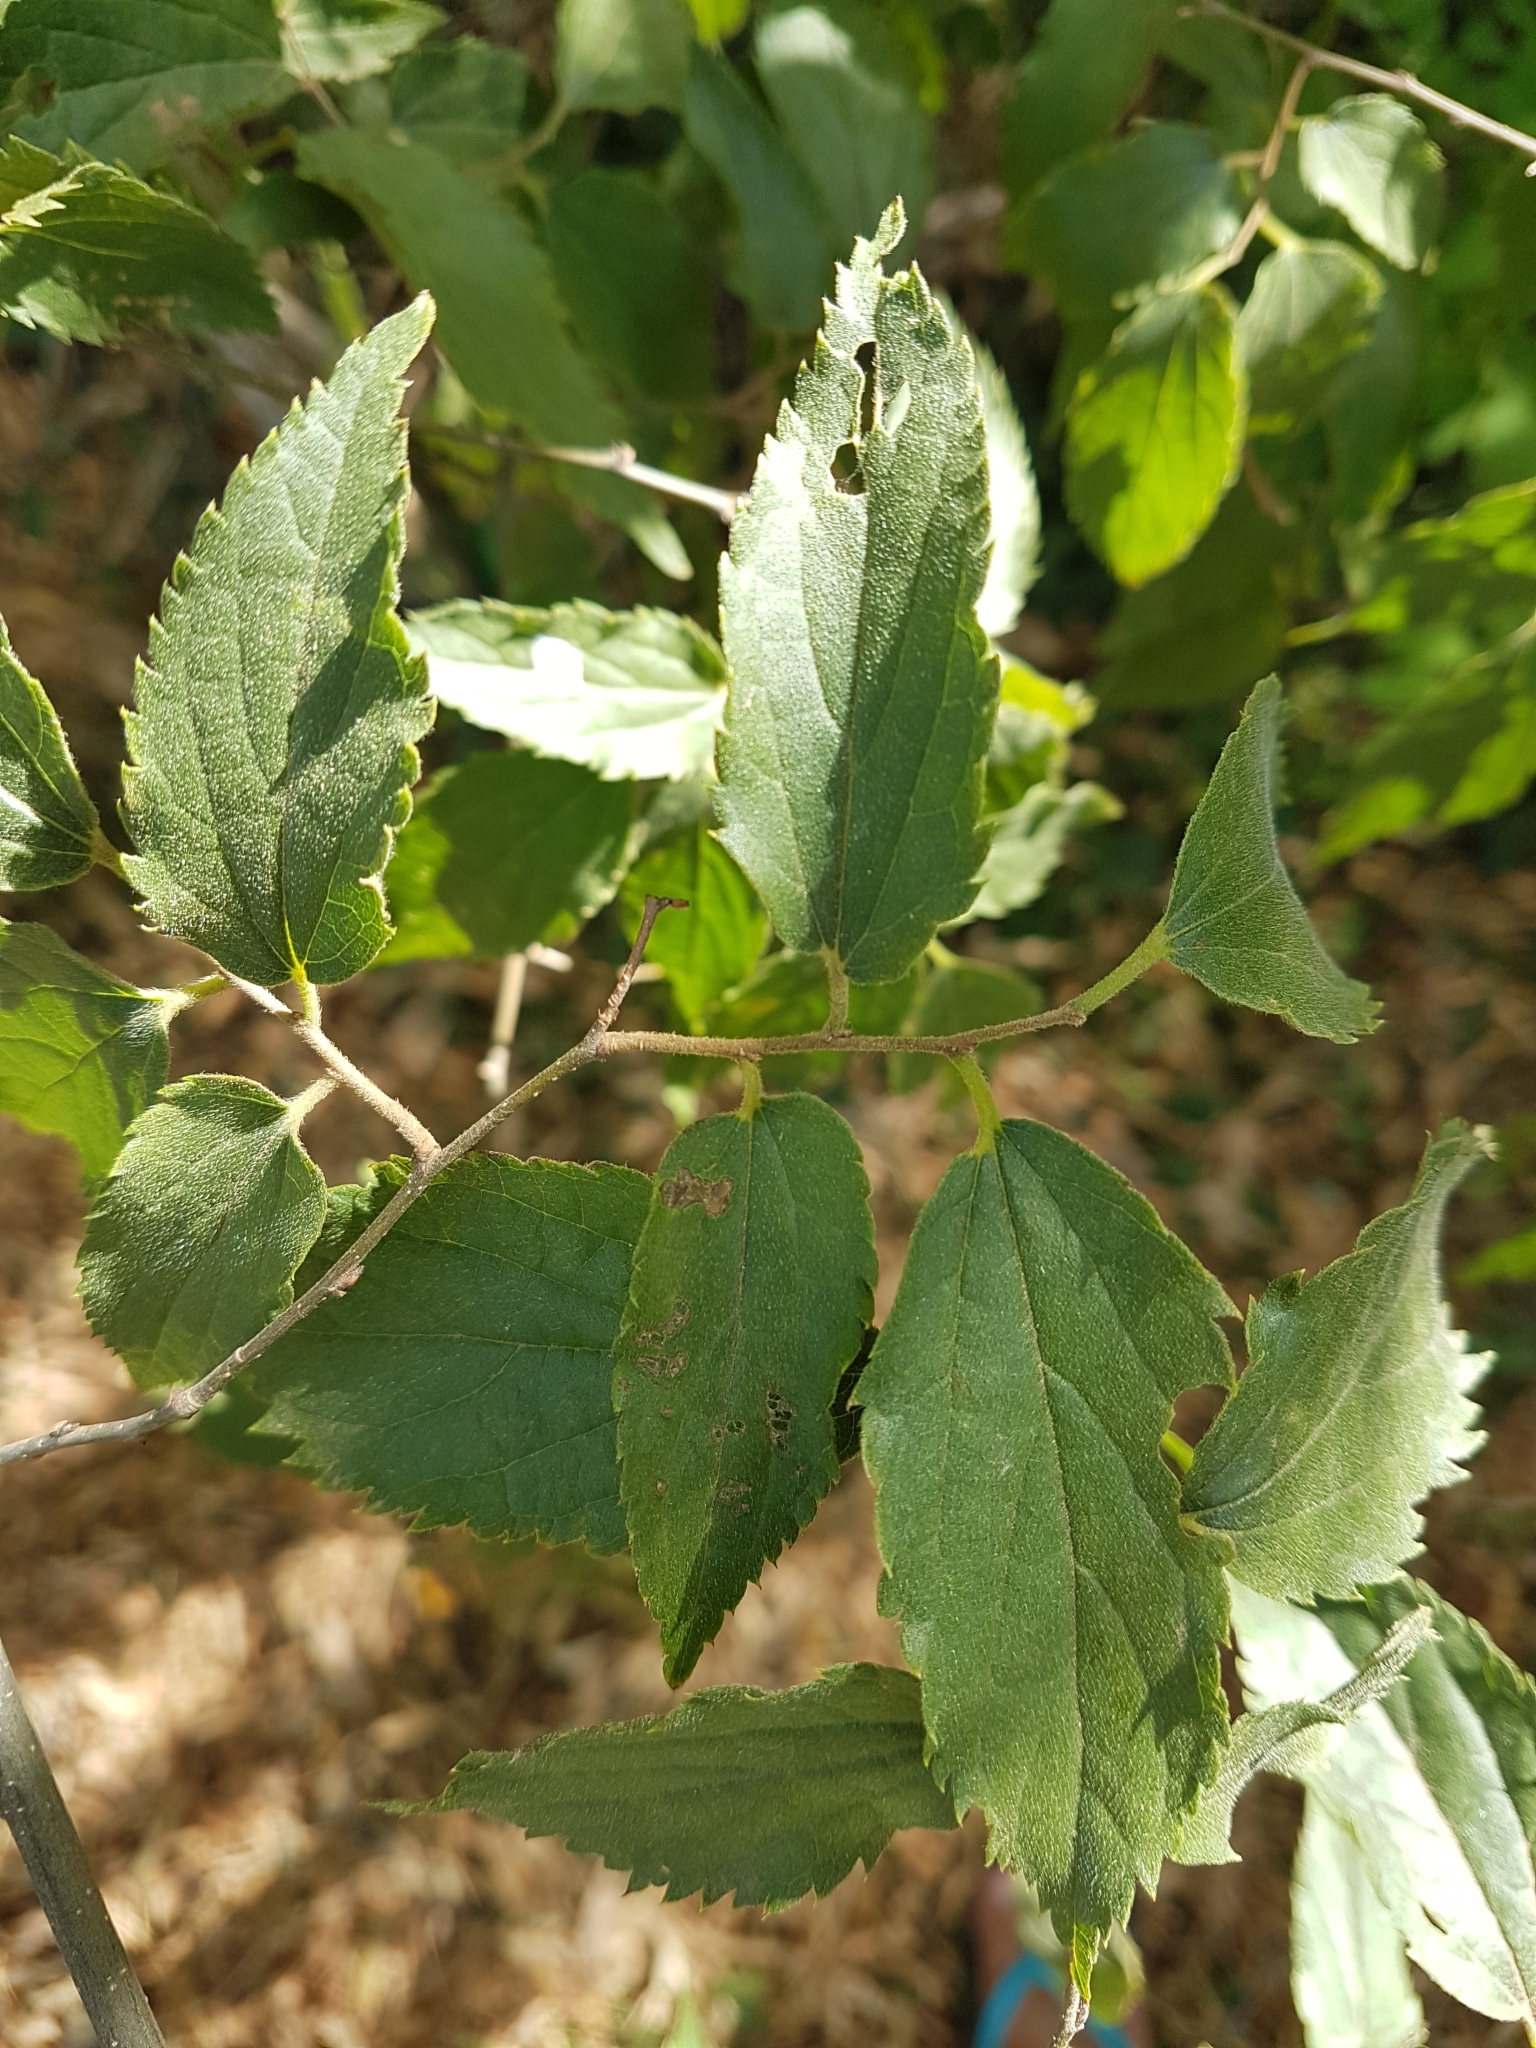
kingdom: Plantae
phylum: Tracheophyta
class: Magnoliopsida
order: Rosales
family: Cannabaceae
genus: Celtis
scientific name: Celtis australis
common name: European hackberry
